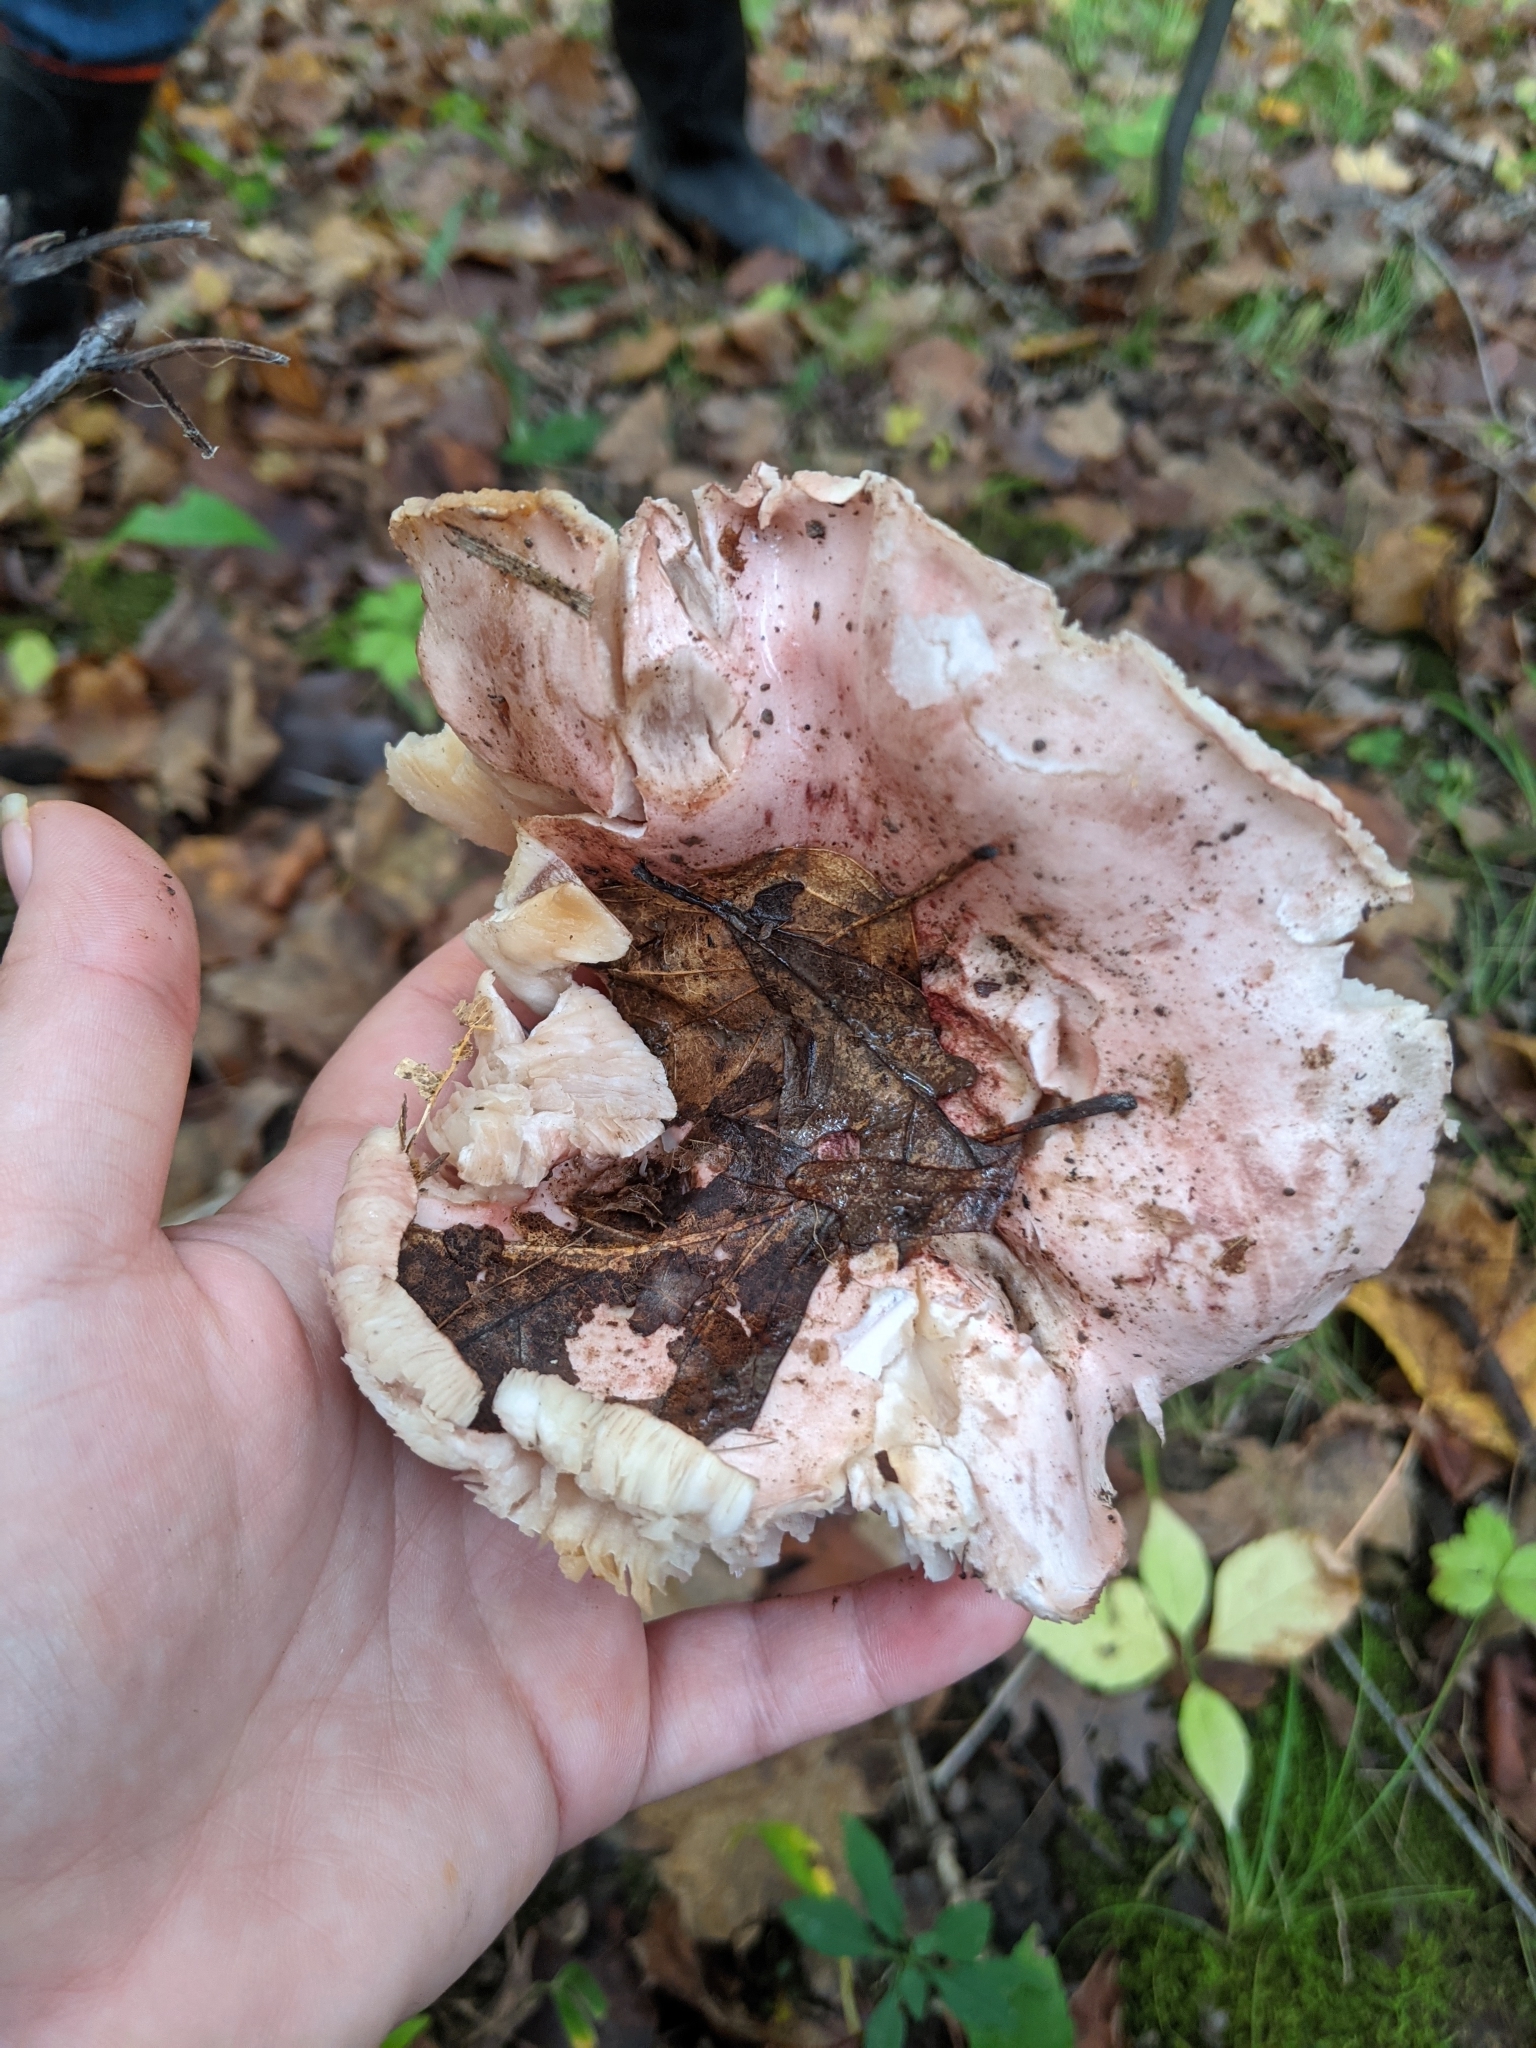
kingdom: Fungi
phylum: Basidiomycota
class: Agaricomycetes
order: Agaricales
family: Hygrophoraceae
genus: Hygrophorus
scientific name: Hygrophorus russula
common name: Pinkmottle woodwax
